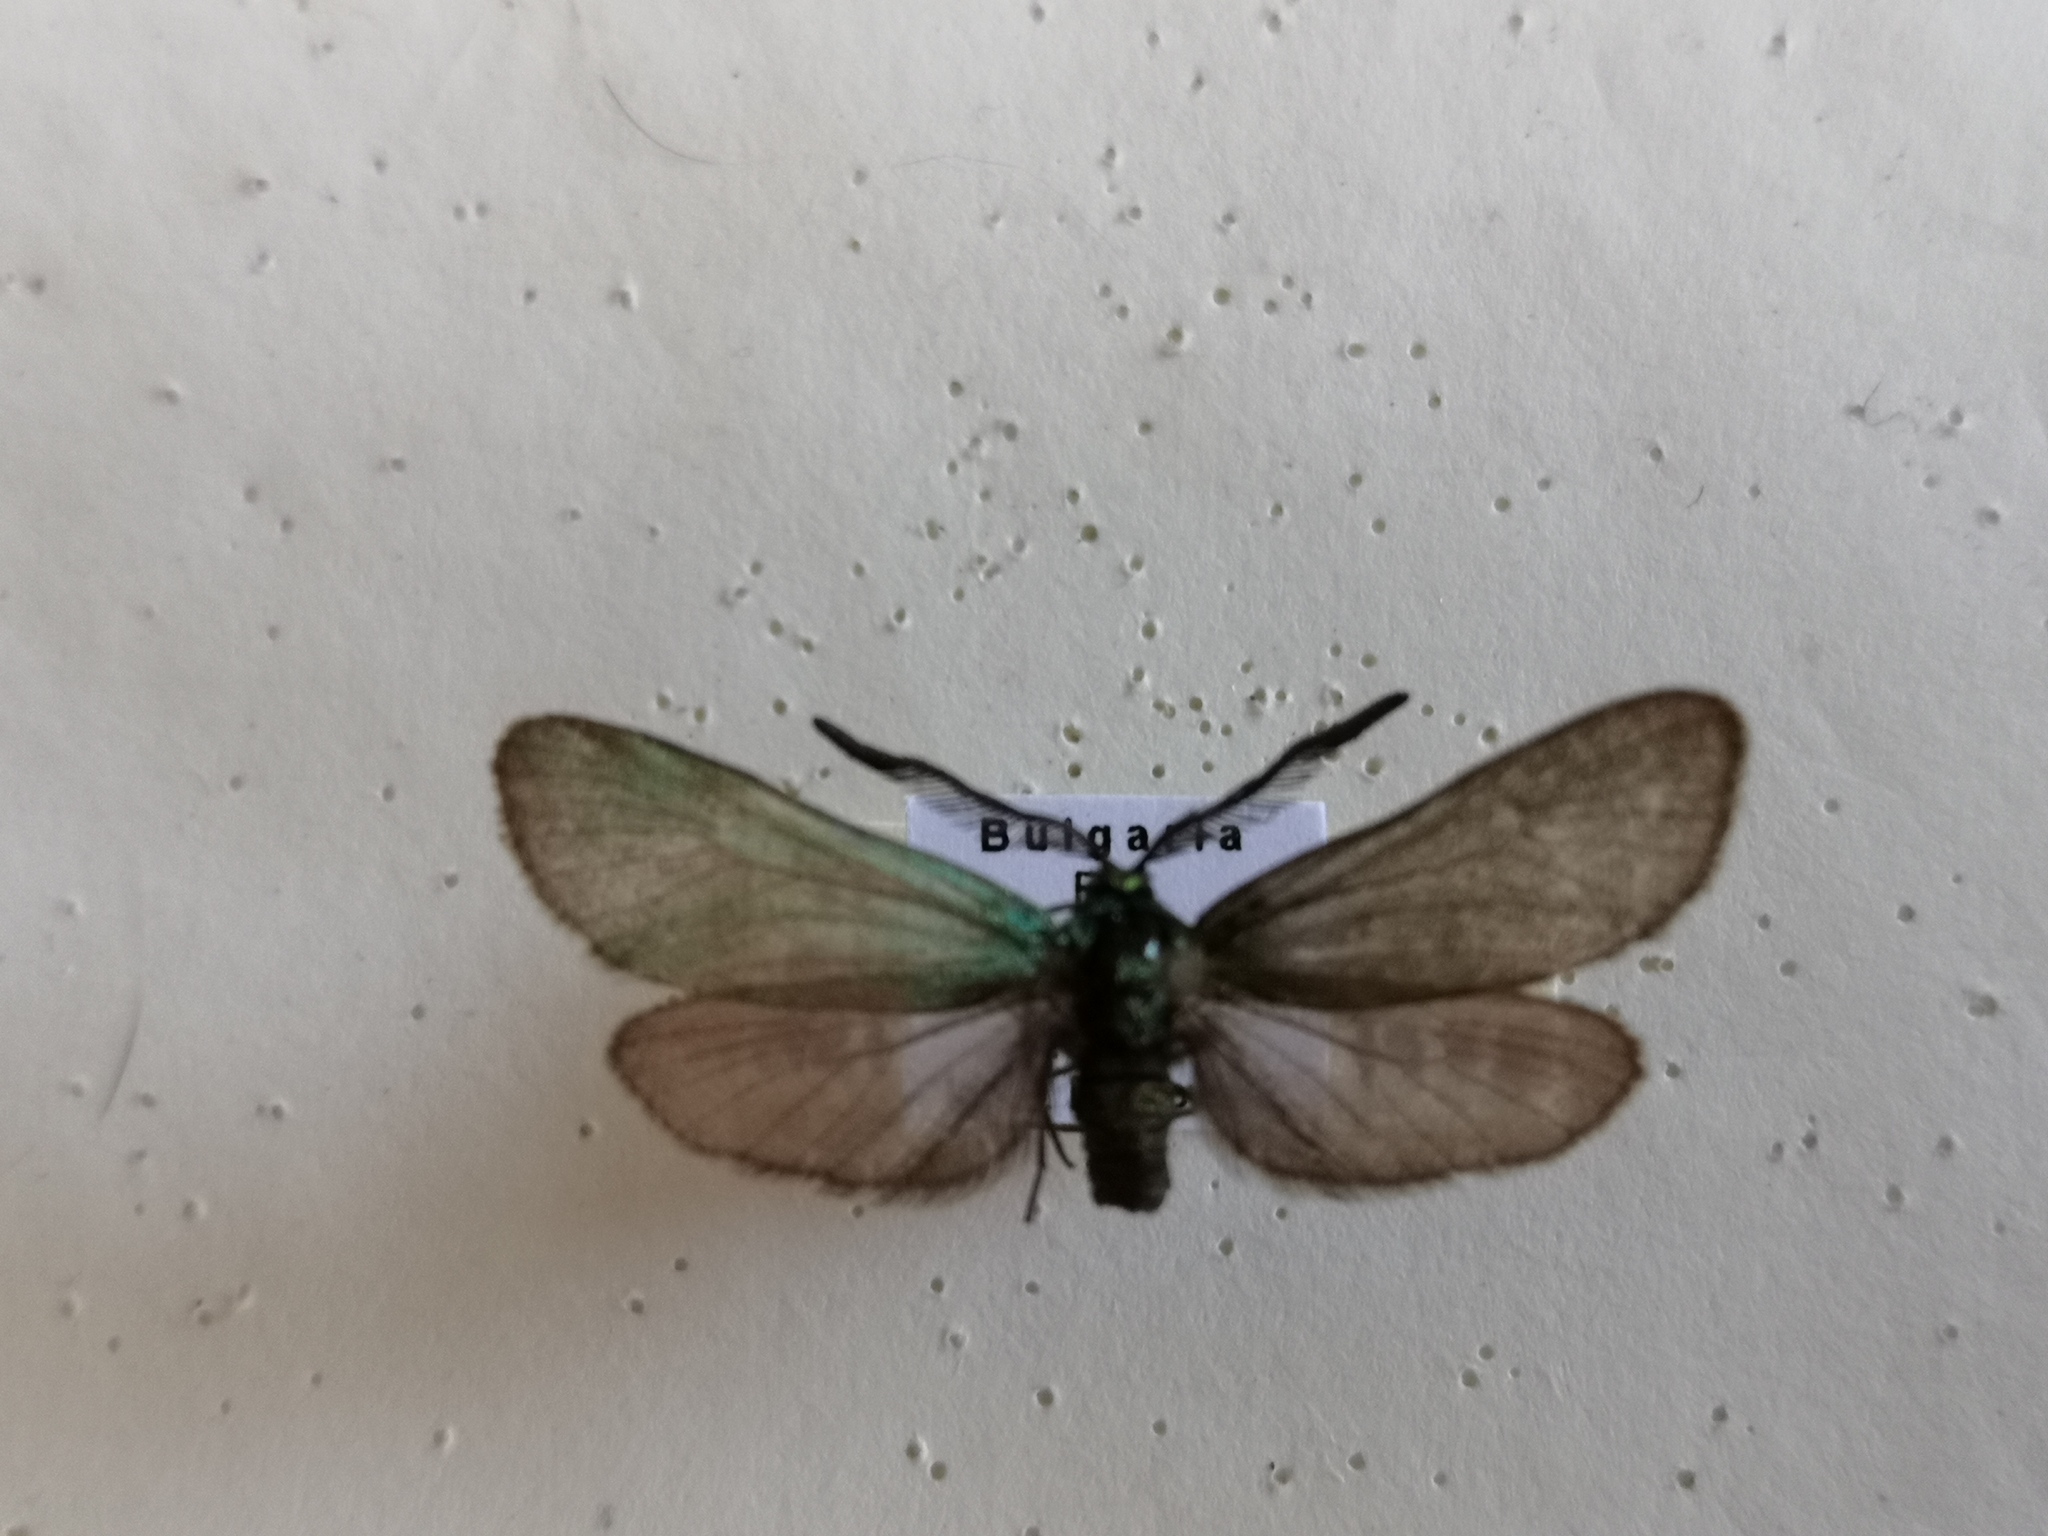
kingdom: Animalia
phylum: Arthropoda
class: Insecta
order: Lepidoptera
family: Zygaenidae
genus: Adscita
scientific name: Adscita albanica
